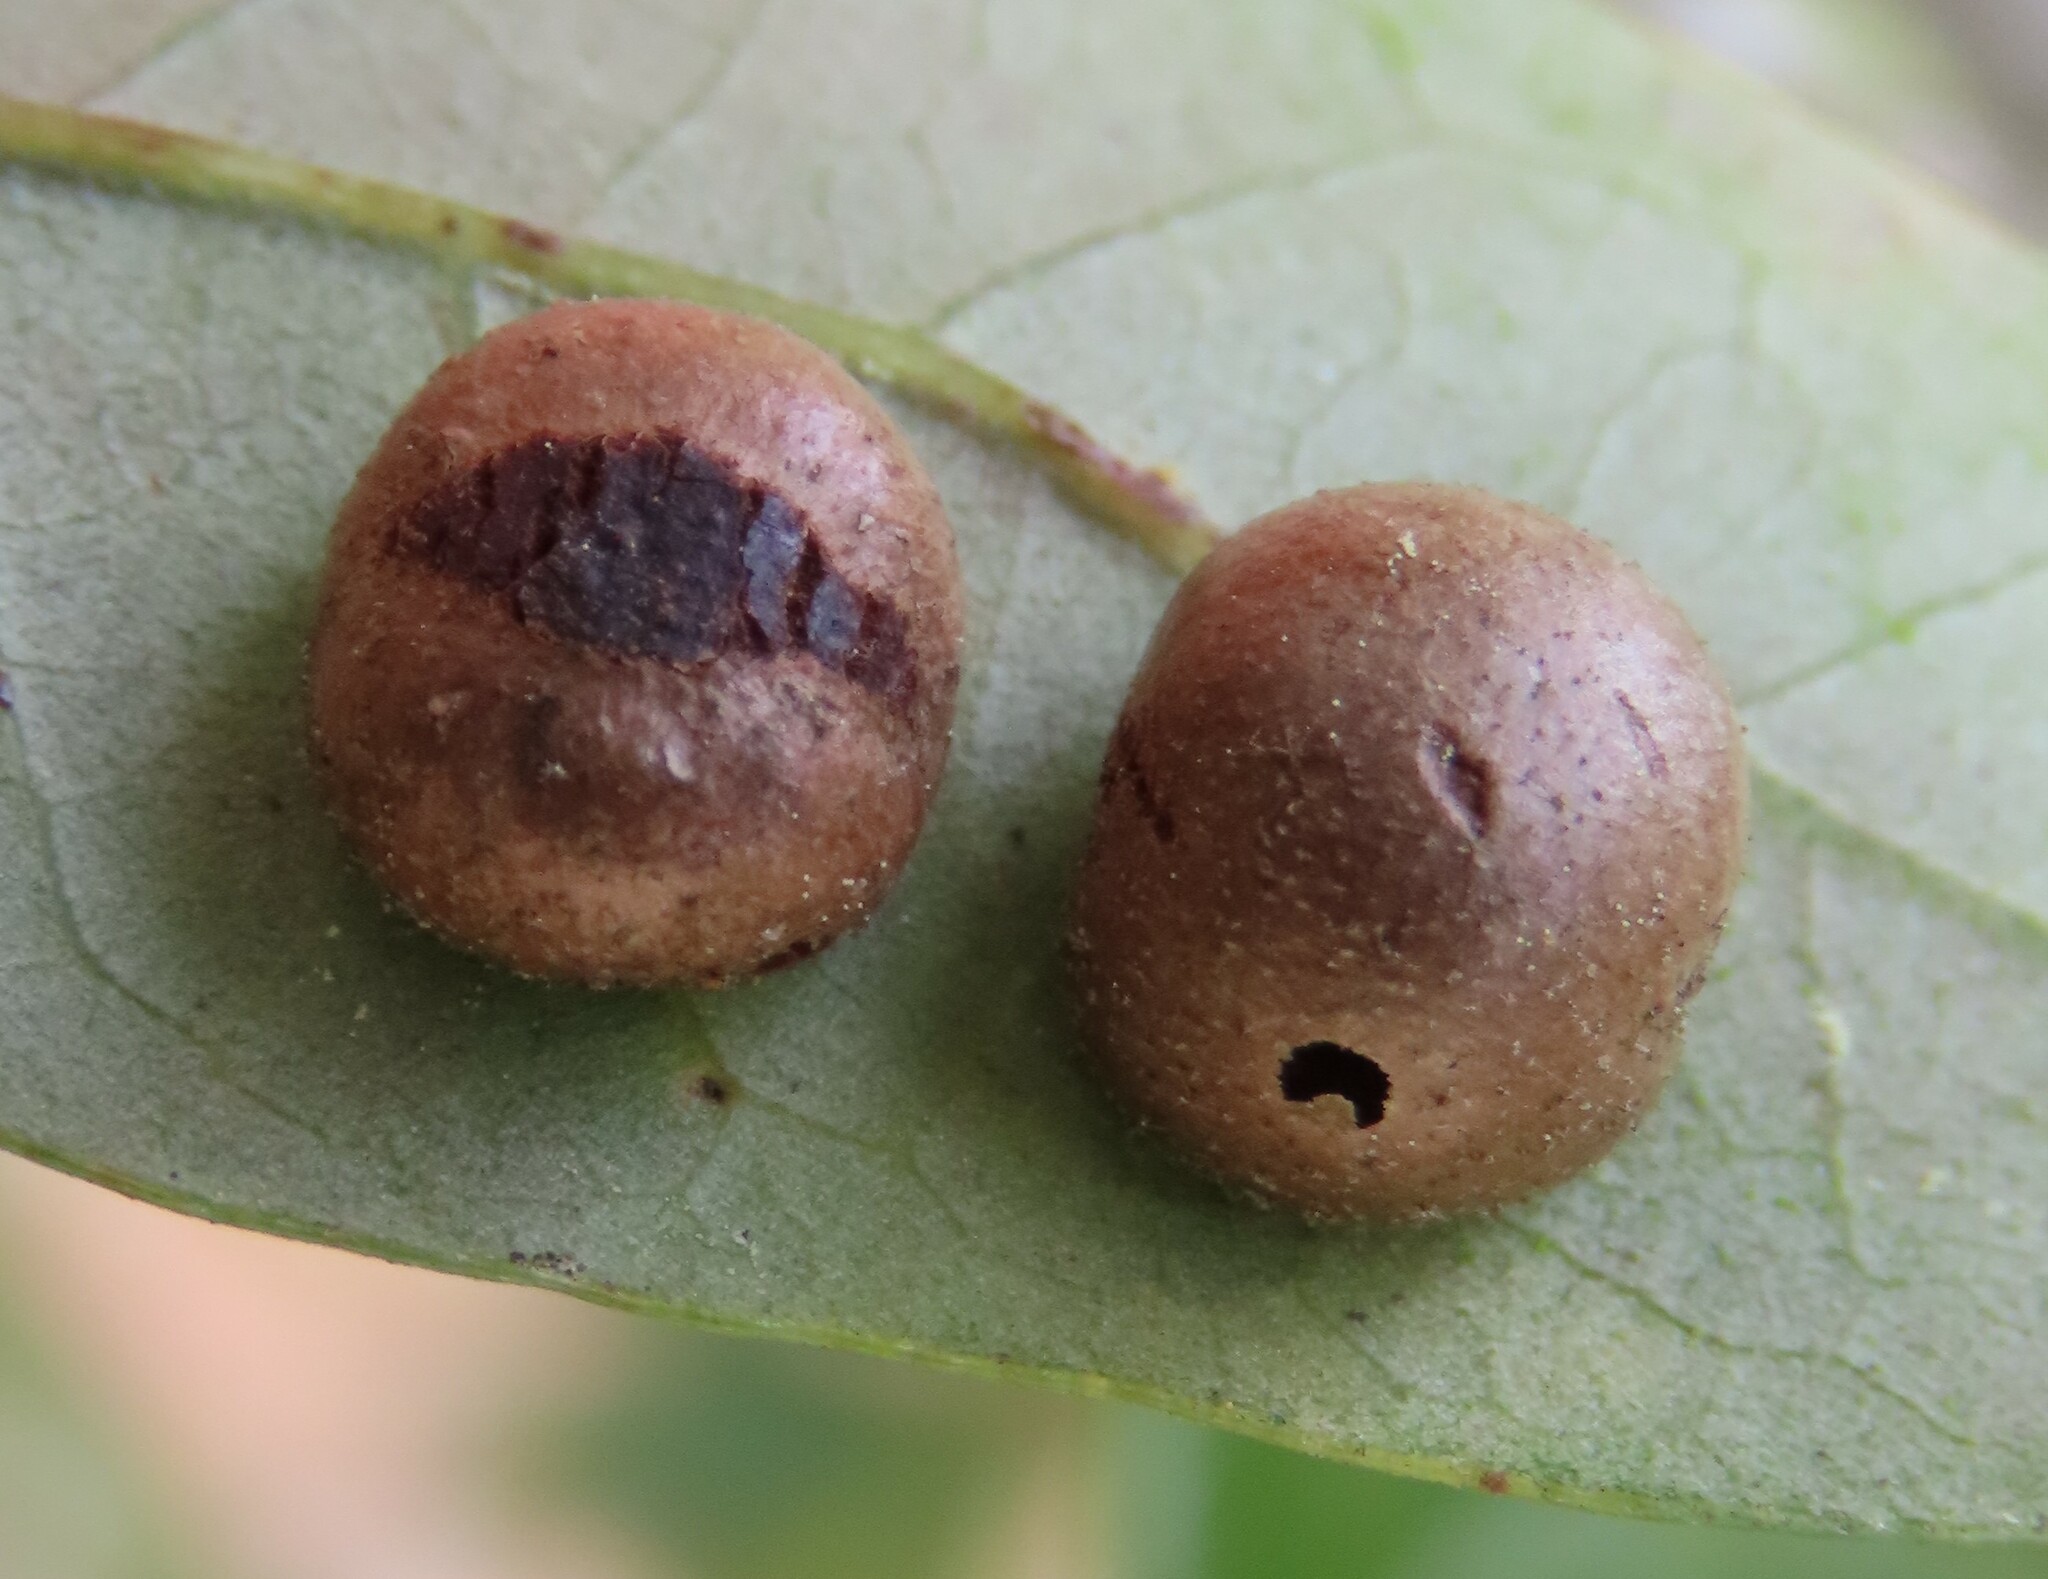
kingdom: Animalia
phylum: Arthropoda
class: Insecta
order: Hymenoptera
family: Cynipidae
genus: Belonocnema
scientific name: Belonocnema treatae
